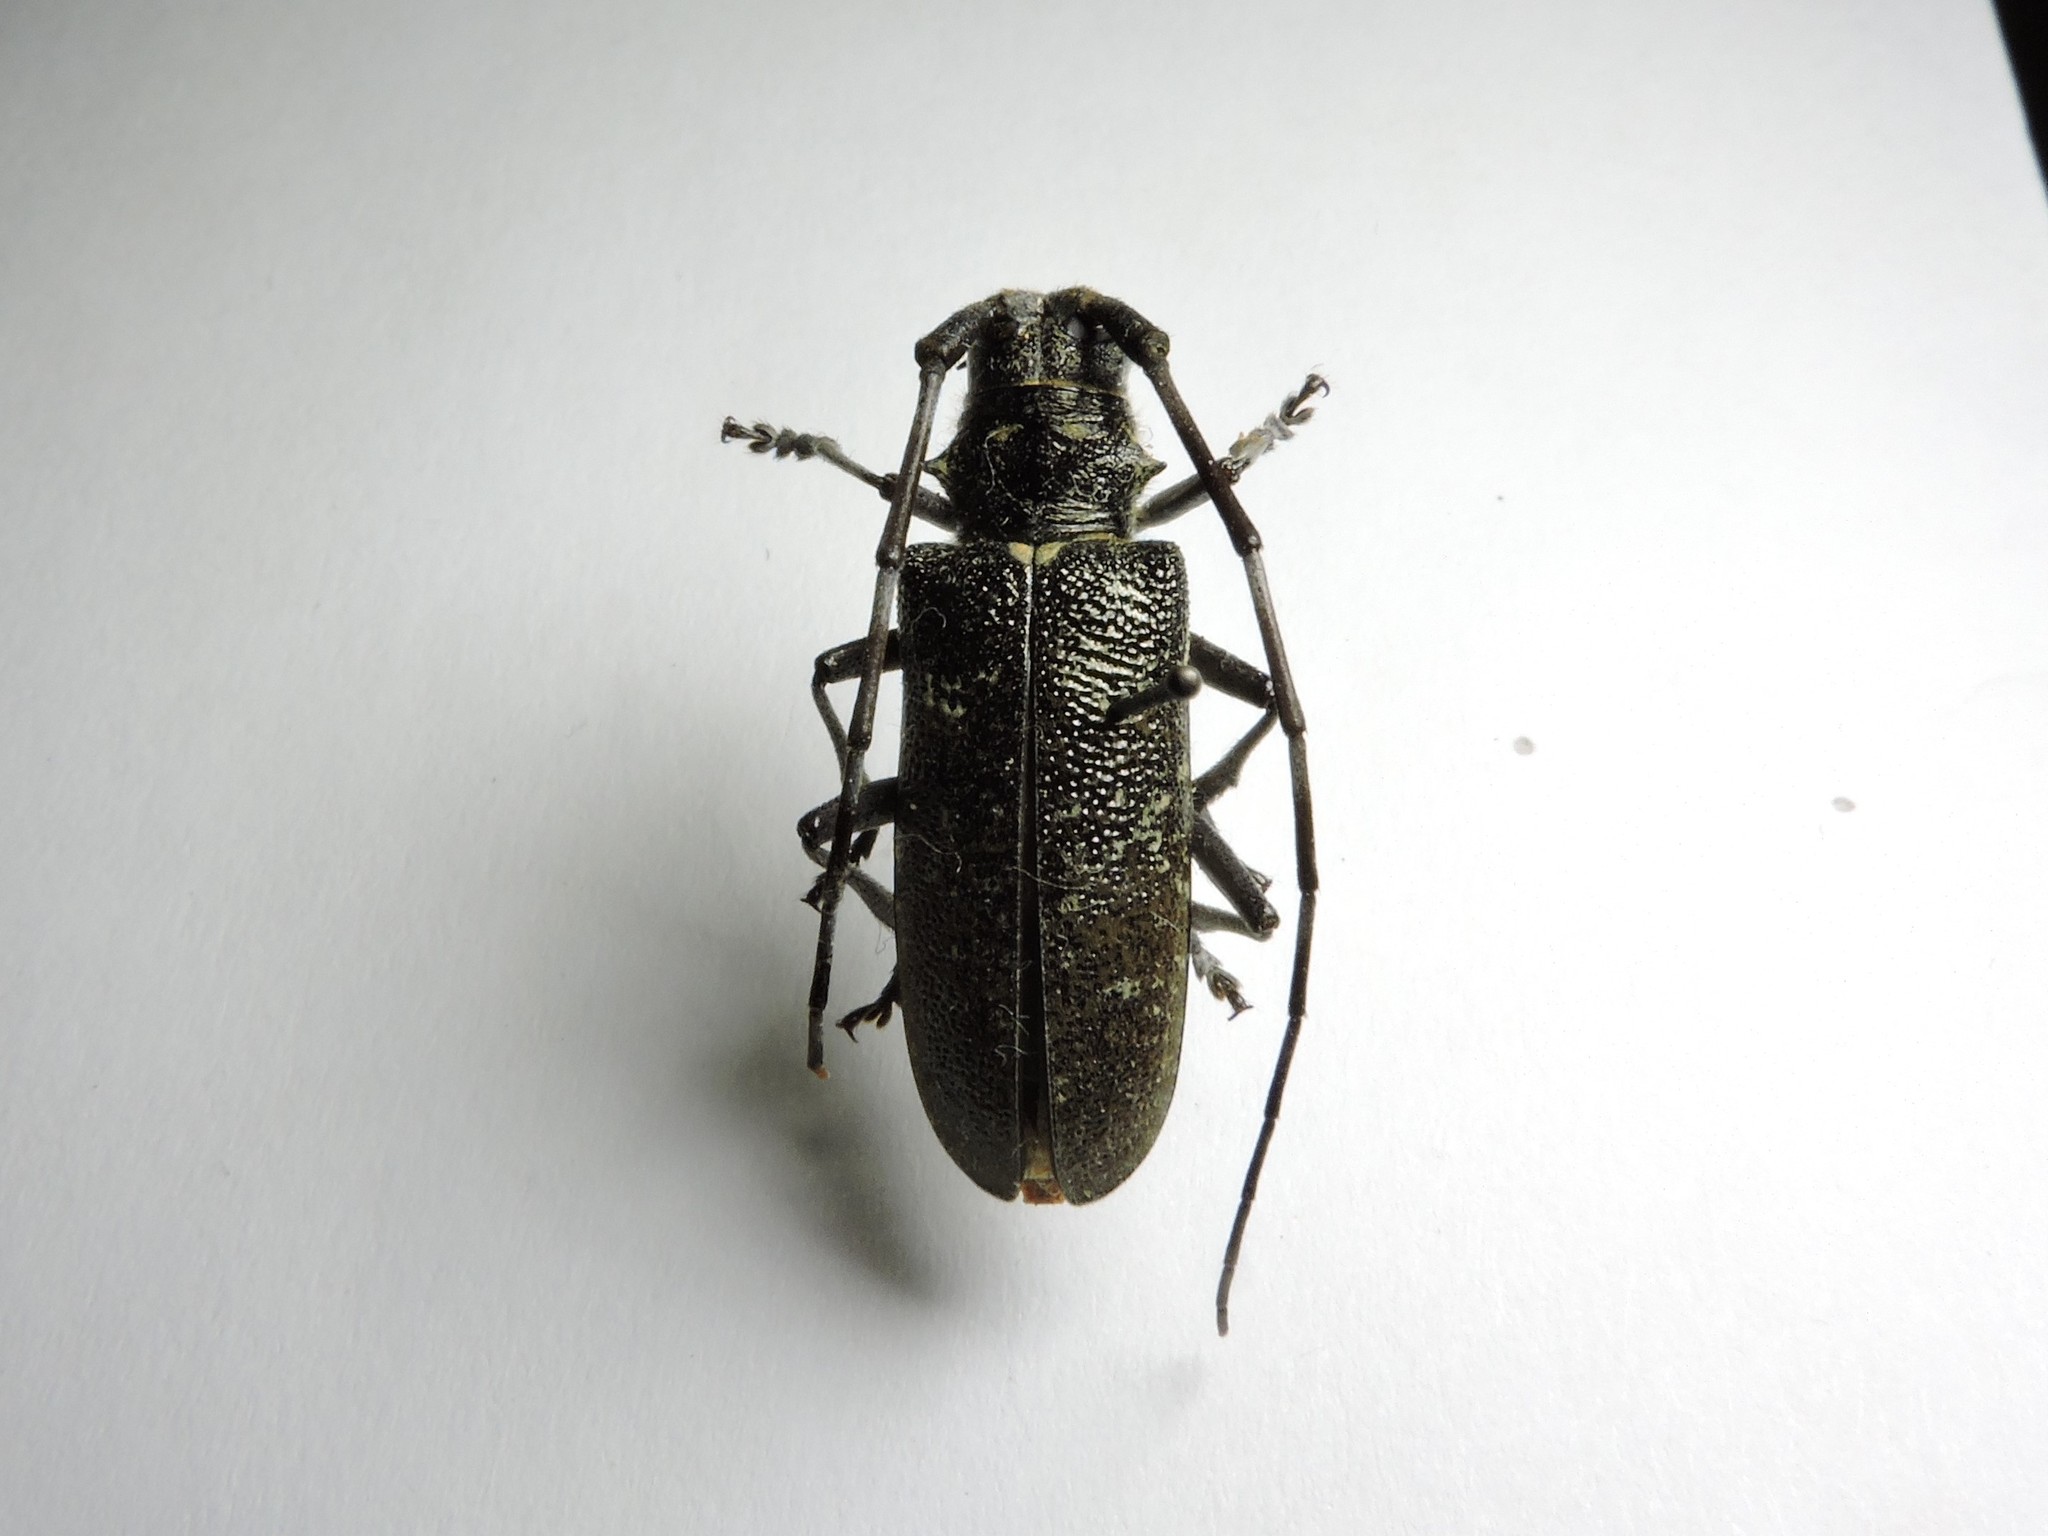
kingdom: Animalia
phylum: Arthropoda
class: Insecta
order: Coleoptera
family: Cerambycidae
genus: Monochamus
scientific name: Monochamus sutor
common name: Pine sawyer
